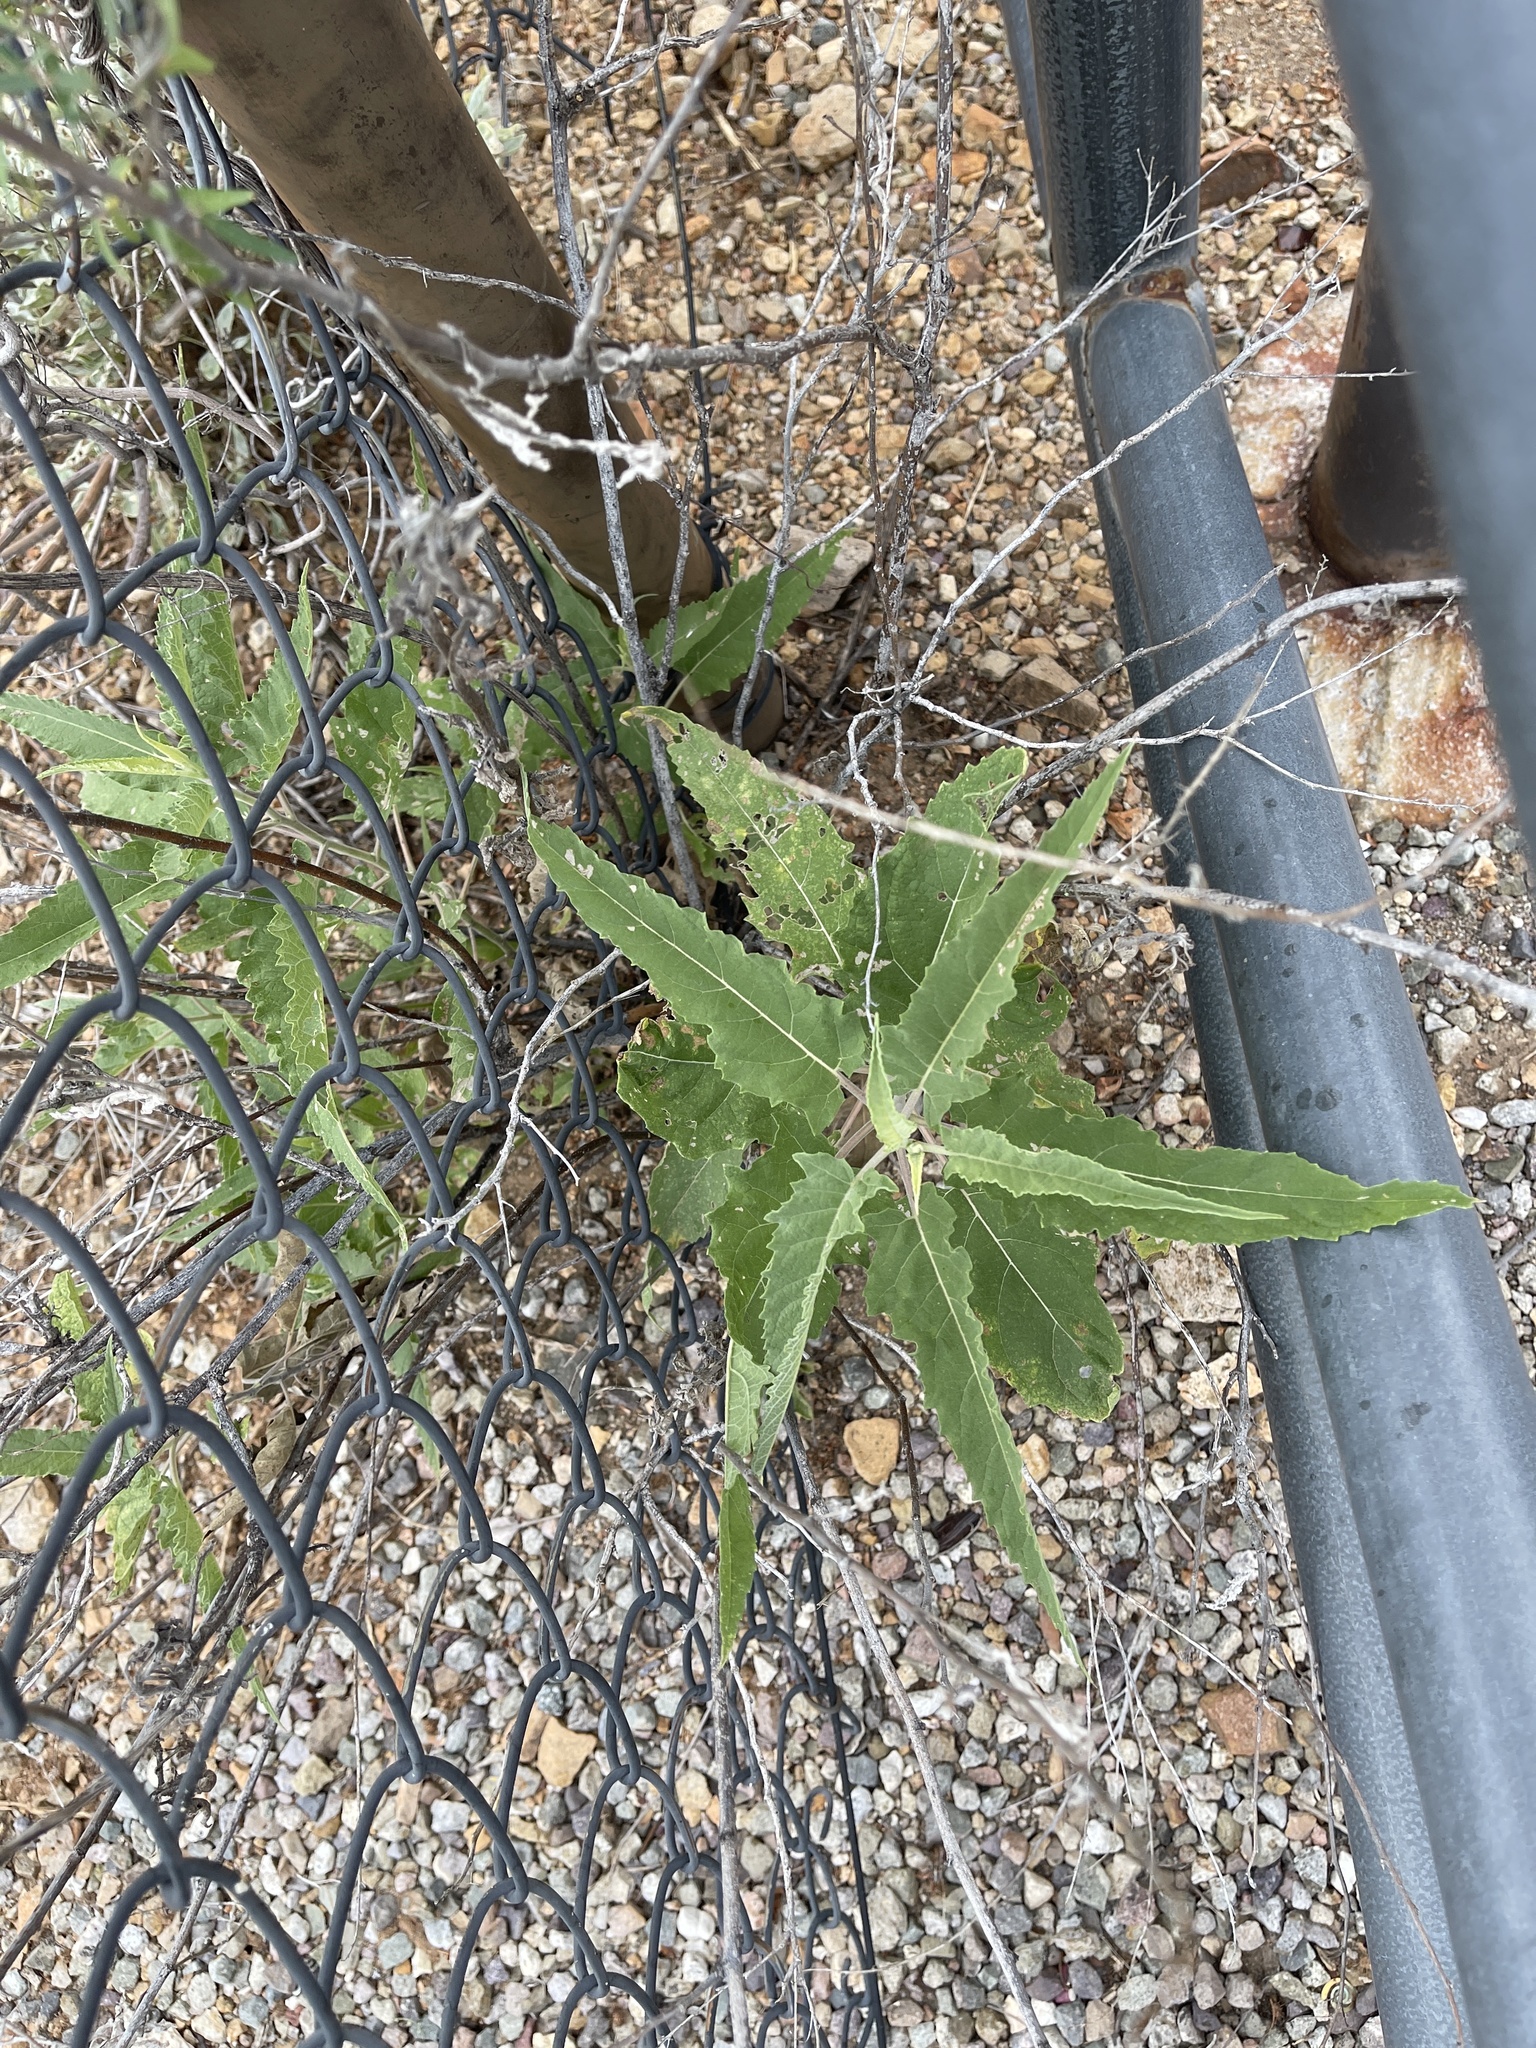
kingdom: Plantae
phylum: Tracheophyta
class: Magnoliopsida
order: Asterales
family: Asteraceae
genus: Ambrosia
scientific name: Ambrosia ambrosioides
